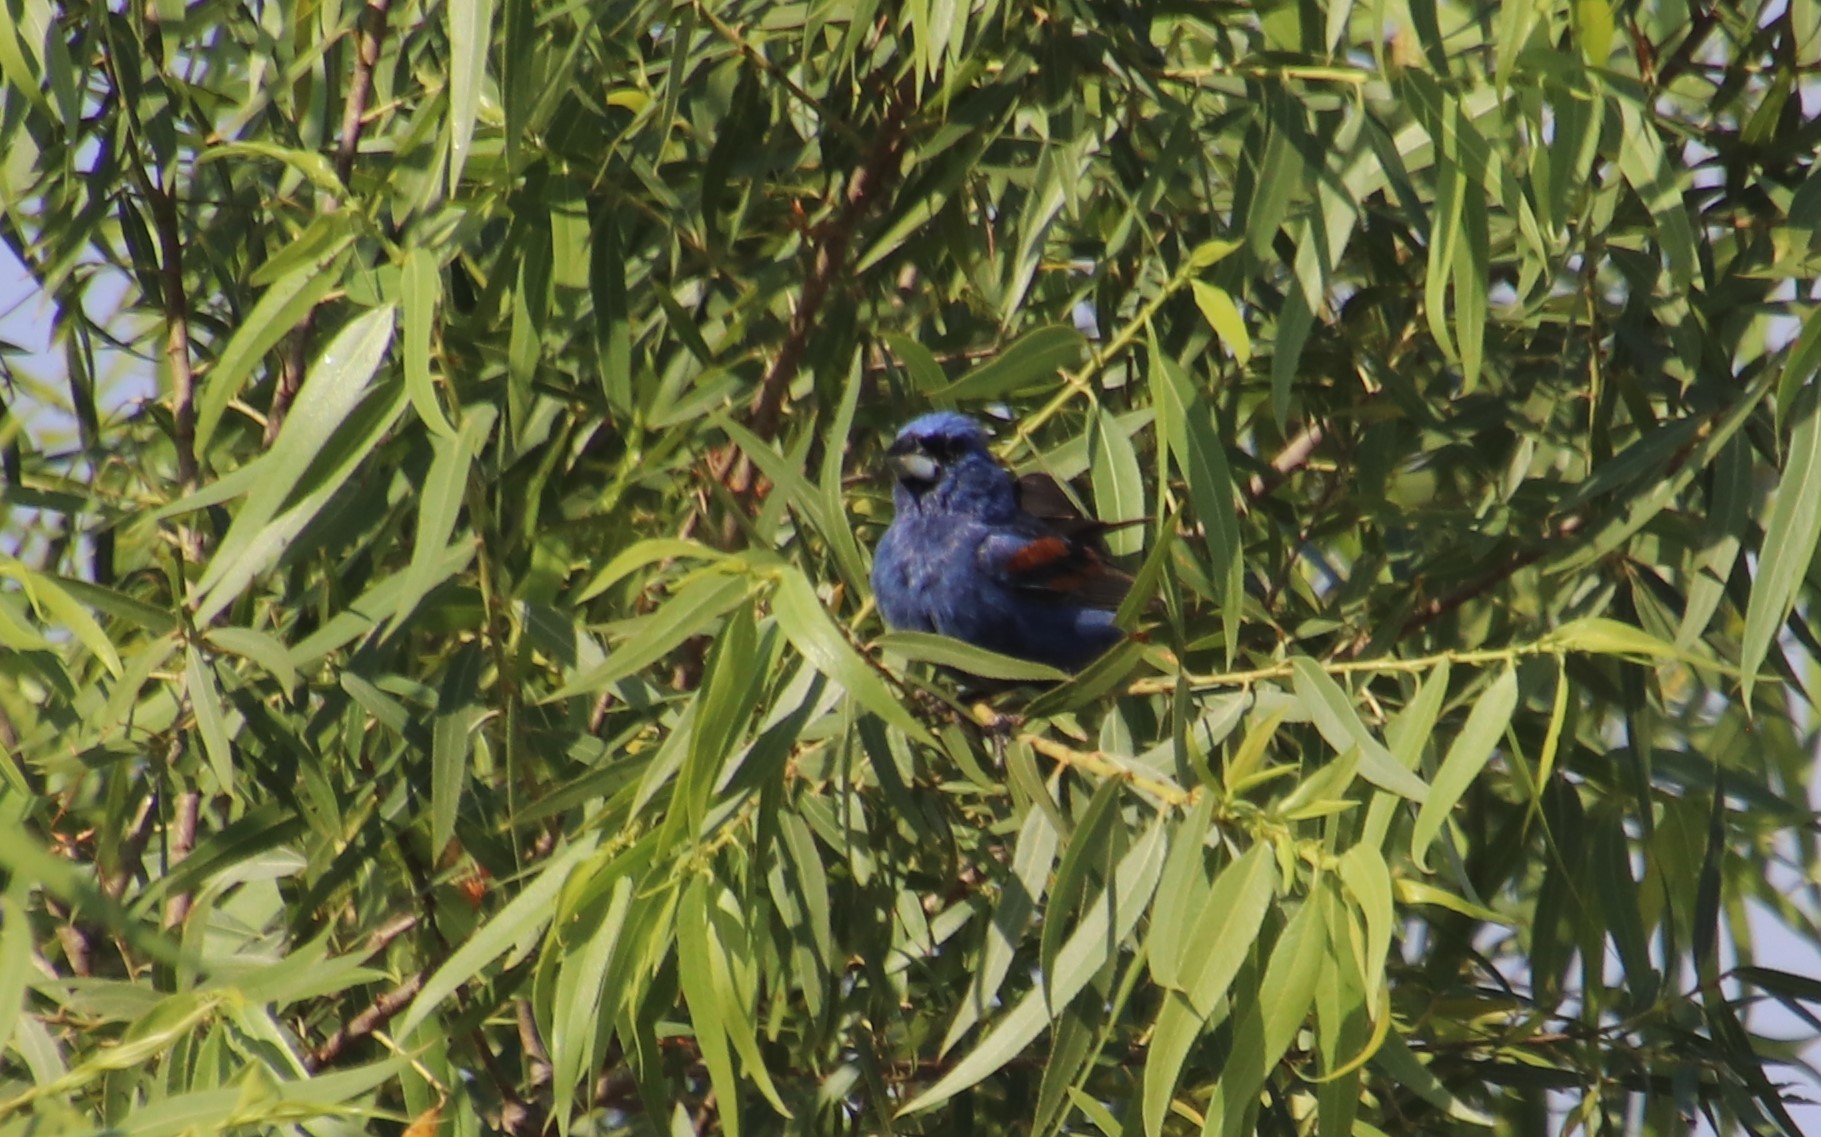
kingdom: Animalia
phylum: Chordata
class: Aves
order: Passeriformes
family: Cardinalidae
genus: Passerina
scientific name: Passerina caerulea
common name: Blue grosbeak
